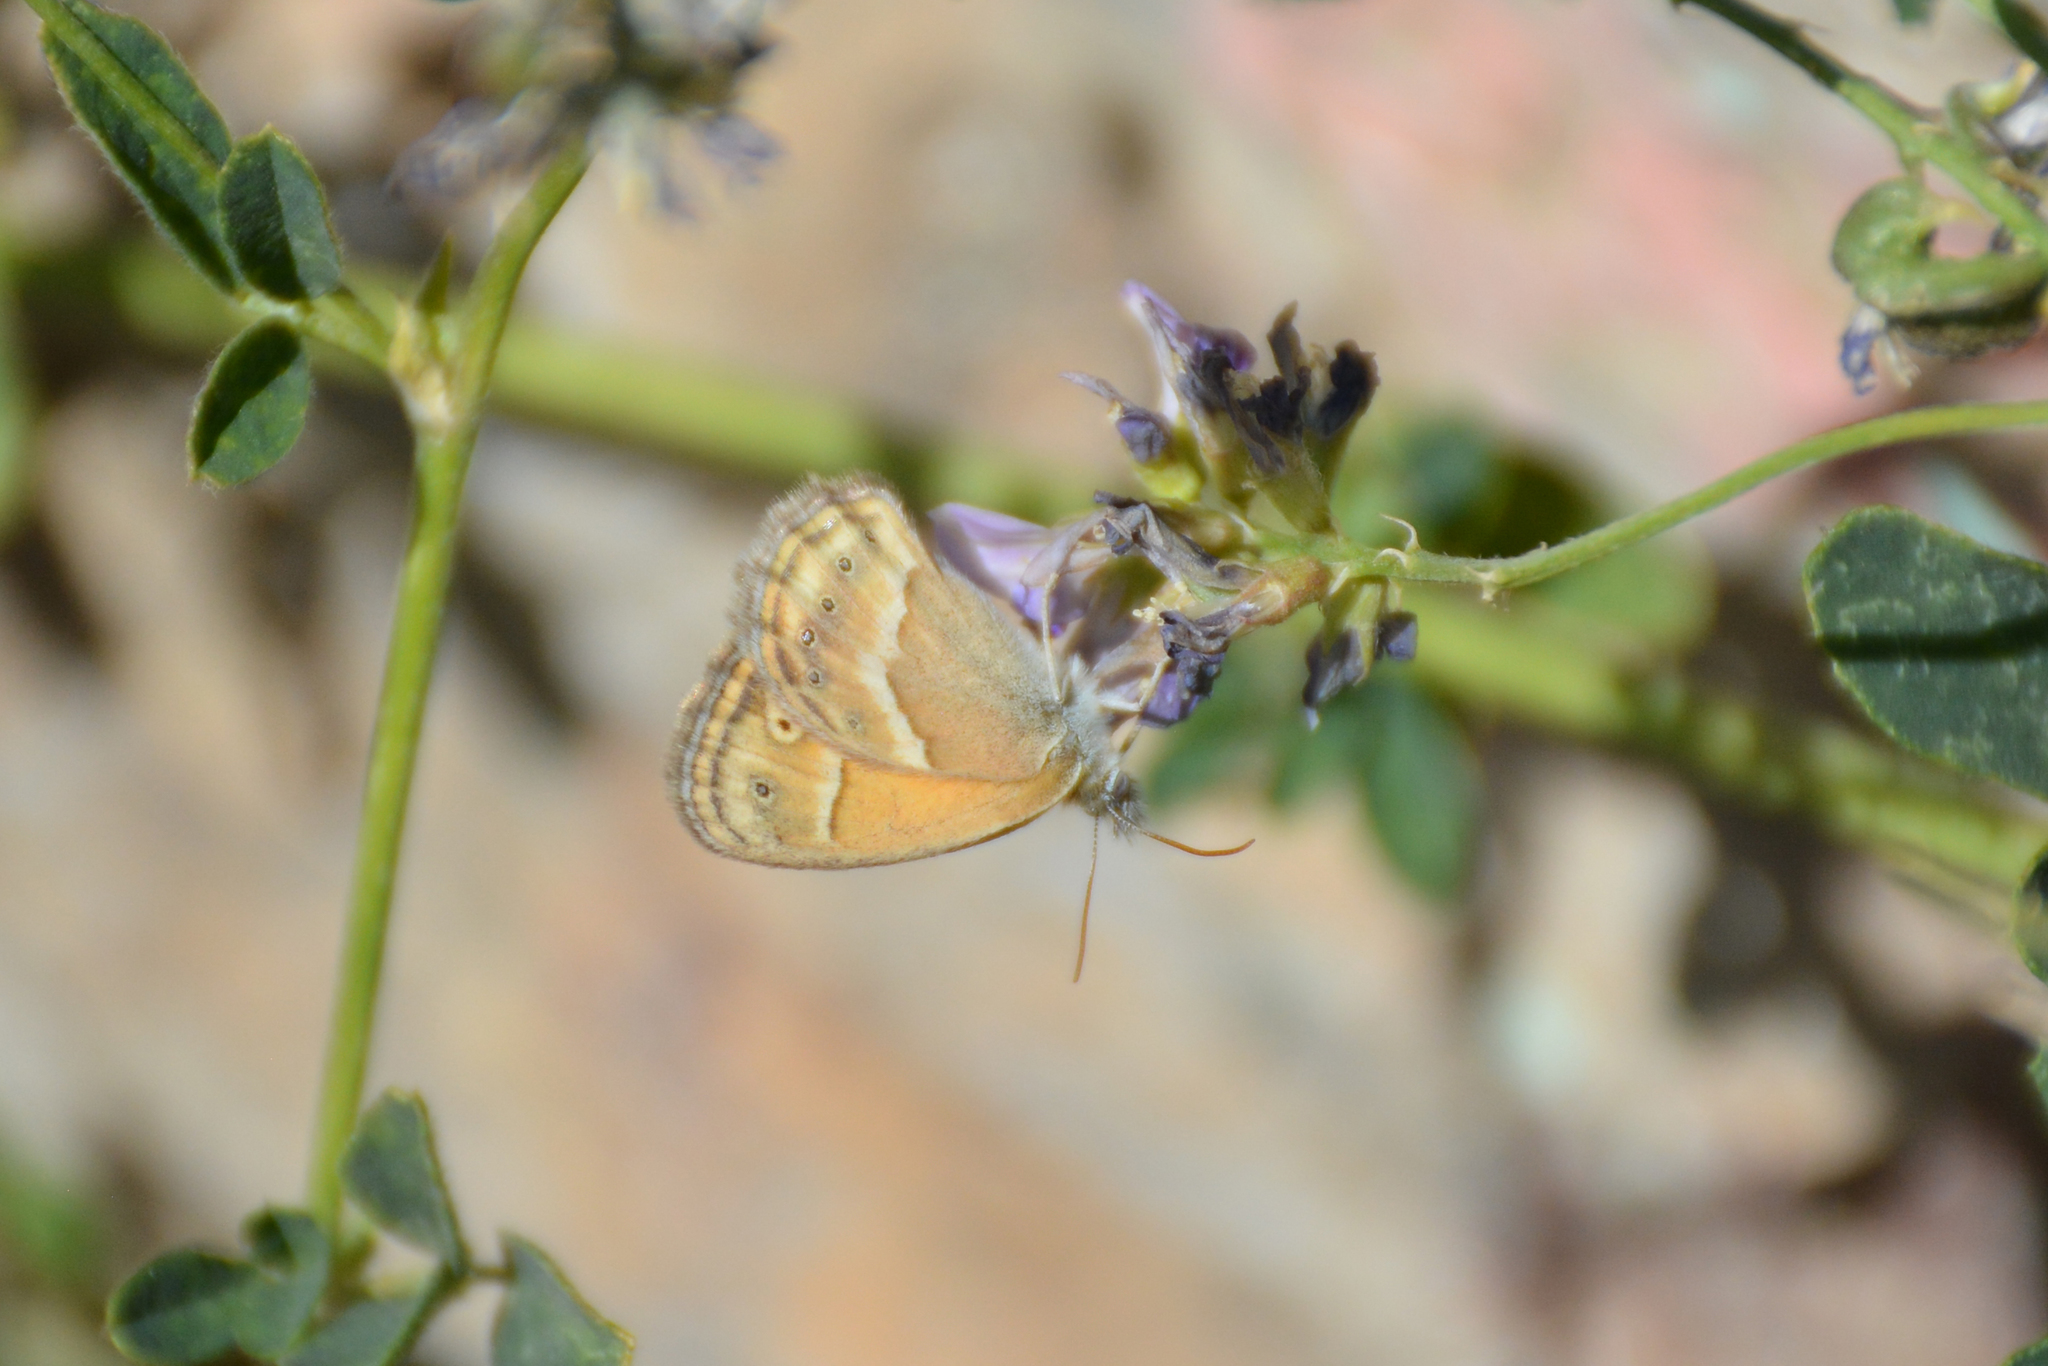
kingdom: Animalia
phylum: Arthropoda
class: Insecta
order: Lepidoptera
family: Nymphalidae
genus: Coenonympha
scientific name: Coenonympha saadi
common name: Small heath
